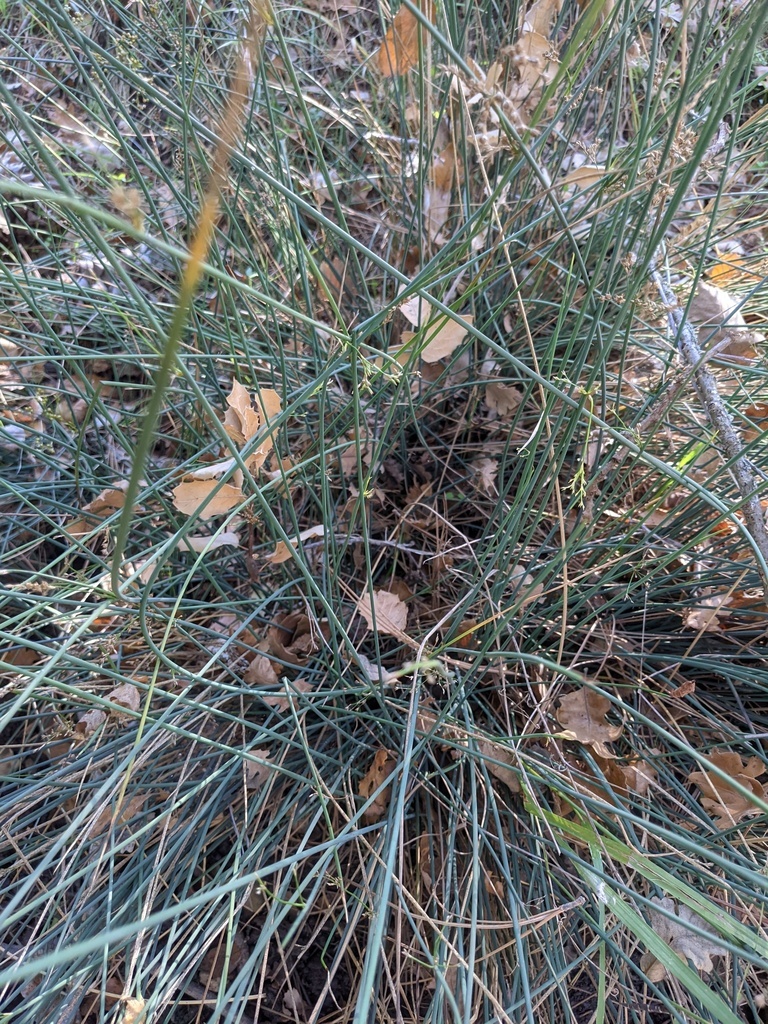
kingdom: Plantae
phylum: Tracheophyta
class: Liliopsida
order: Poales
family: Juncaceae
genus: Juncus
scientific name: Juncus patens
